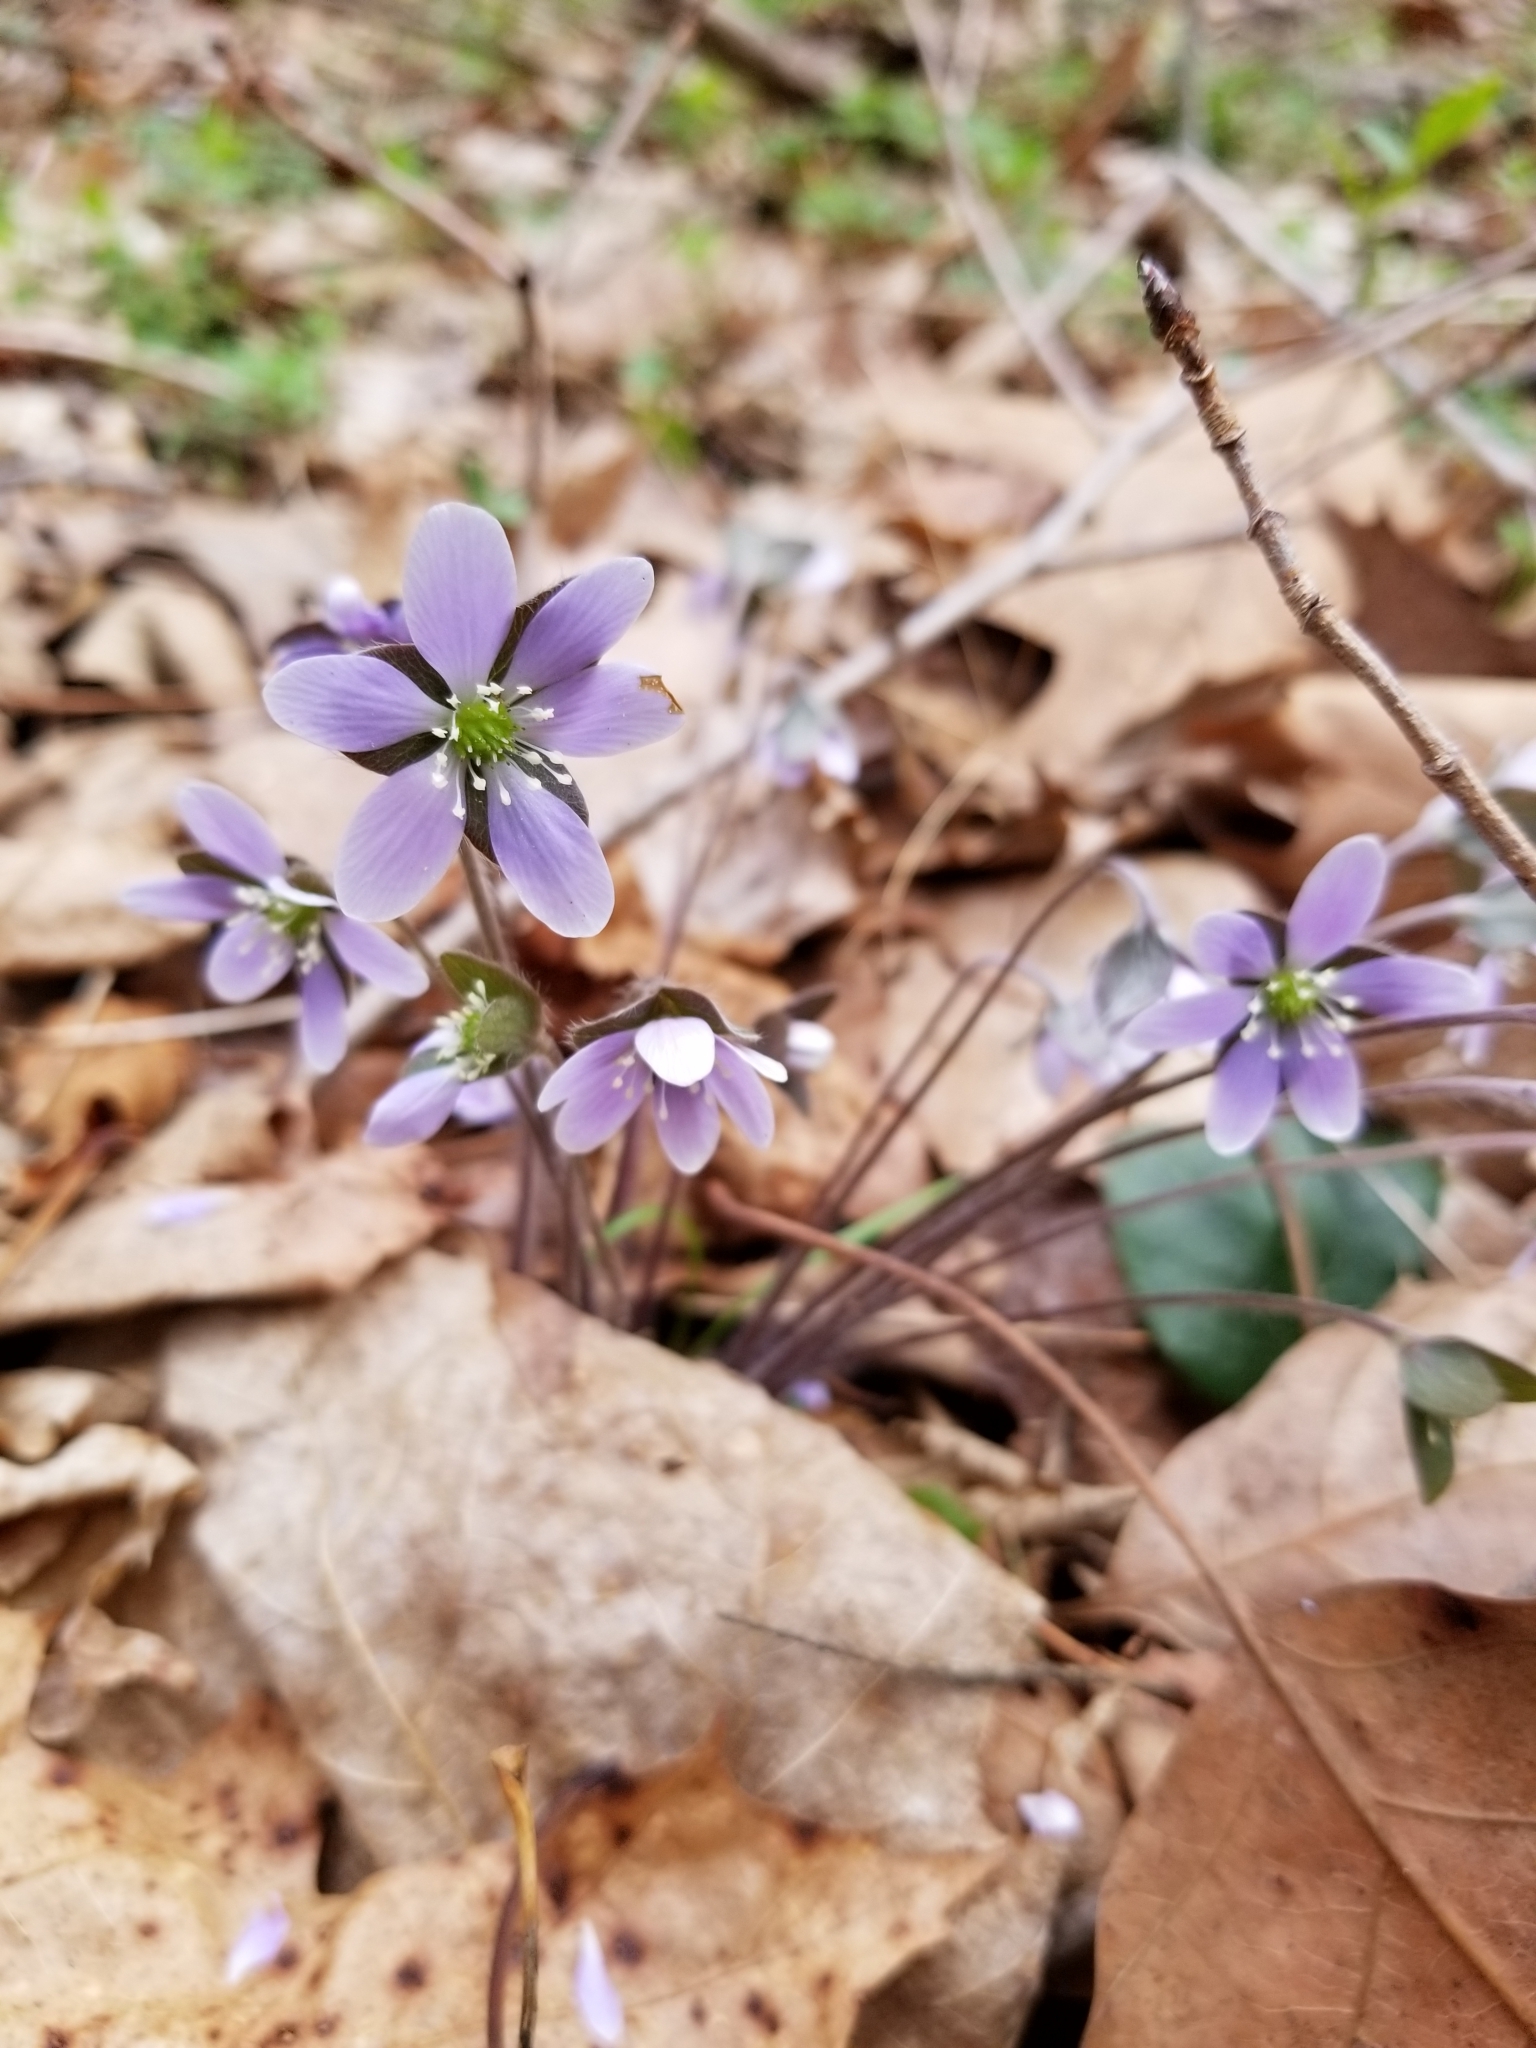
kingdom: Plantae
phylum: Tracheophyta
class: Magnoliopsida
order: Ranunculales
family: Ranunculaceae
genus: Hepatica
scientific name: Hepatica americana
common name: American hepatica
